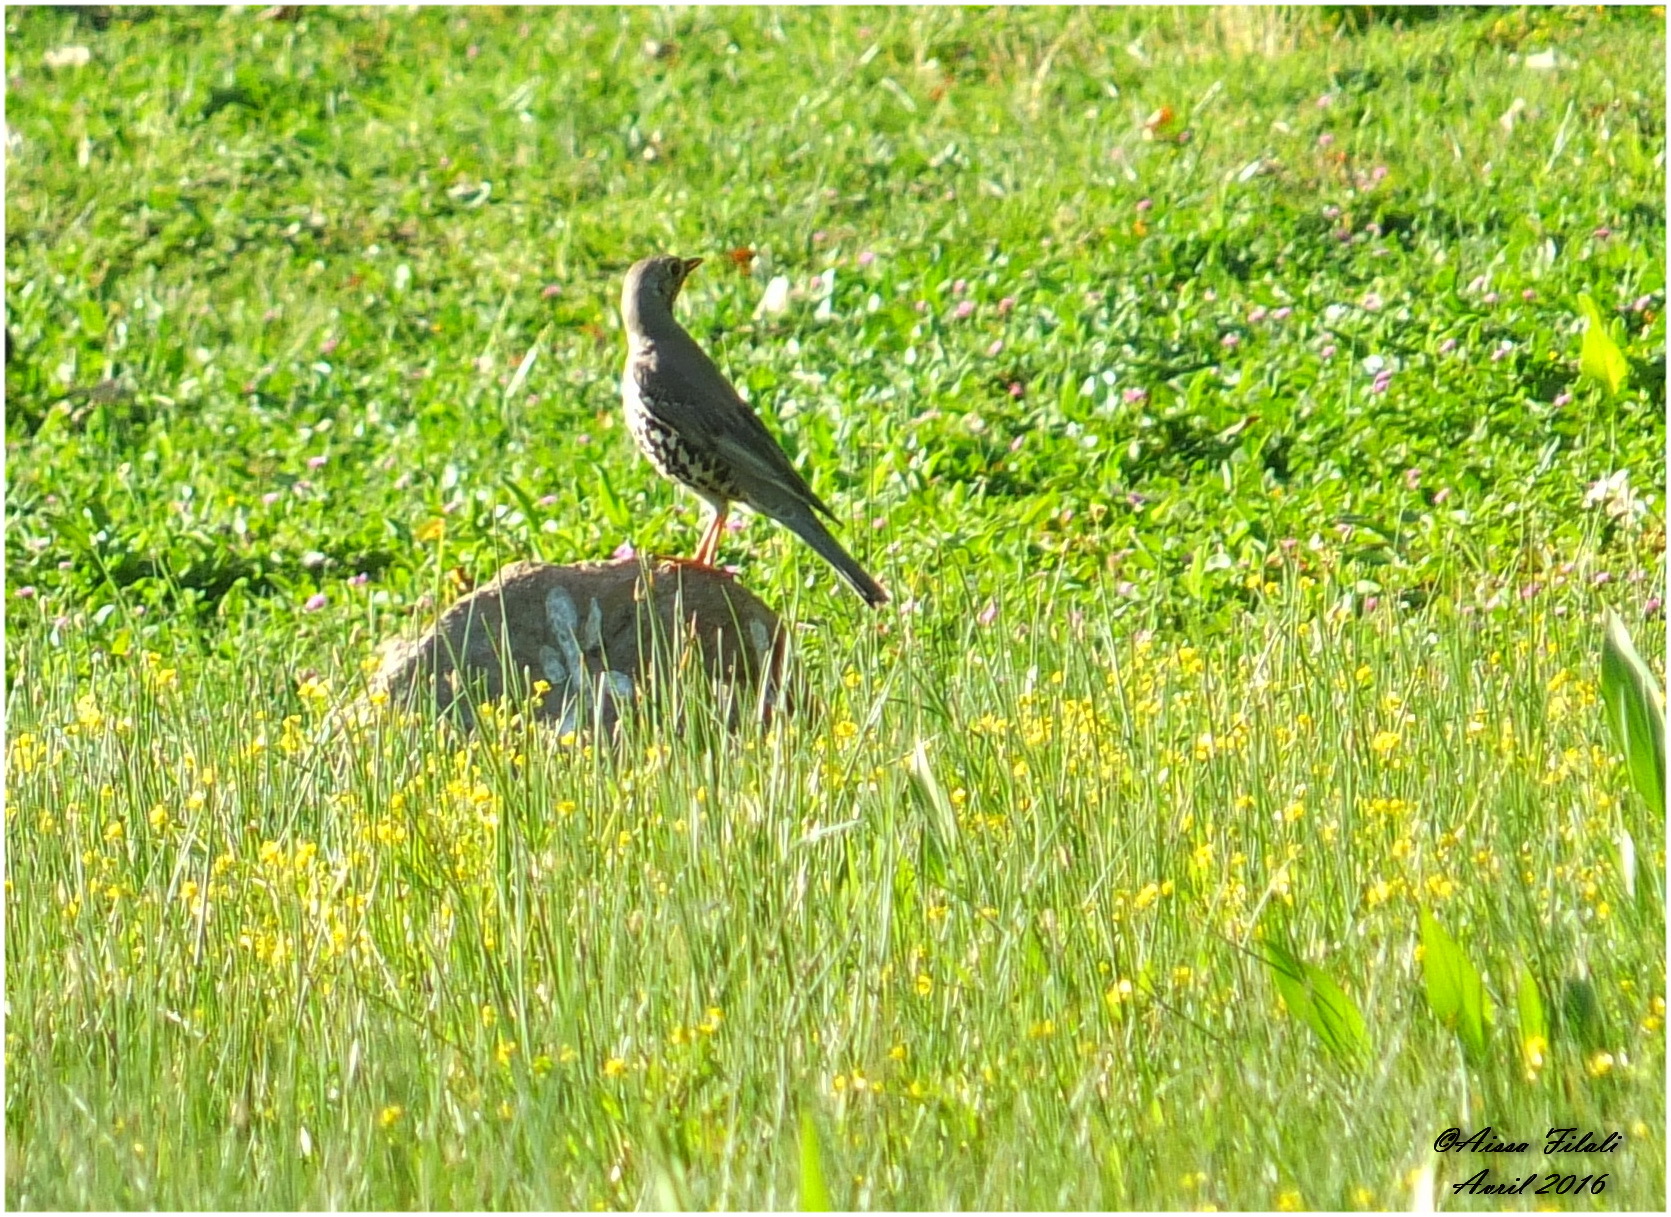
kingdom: Animalia
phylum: Chordata
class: Aves
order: Passeriformes
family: Turdidae
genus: Turdus
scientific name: Turdus viscivorus
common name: Mistle thrush
